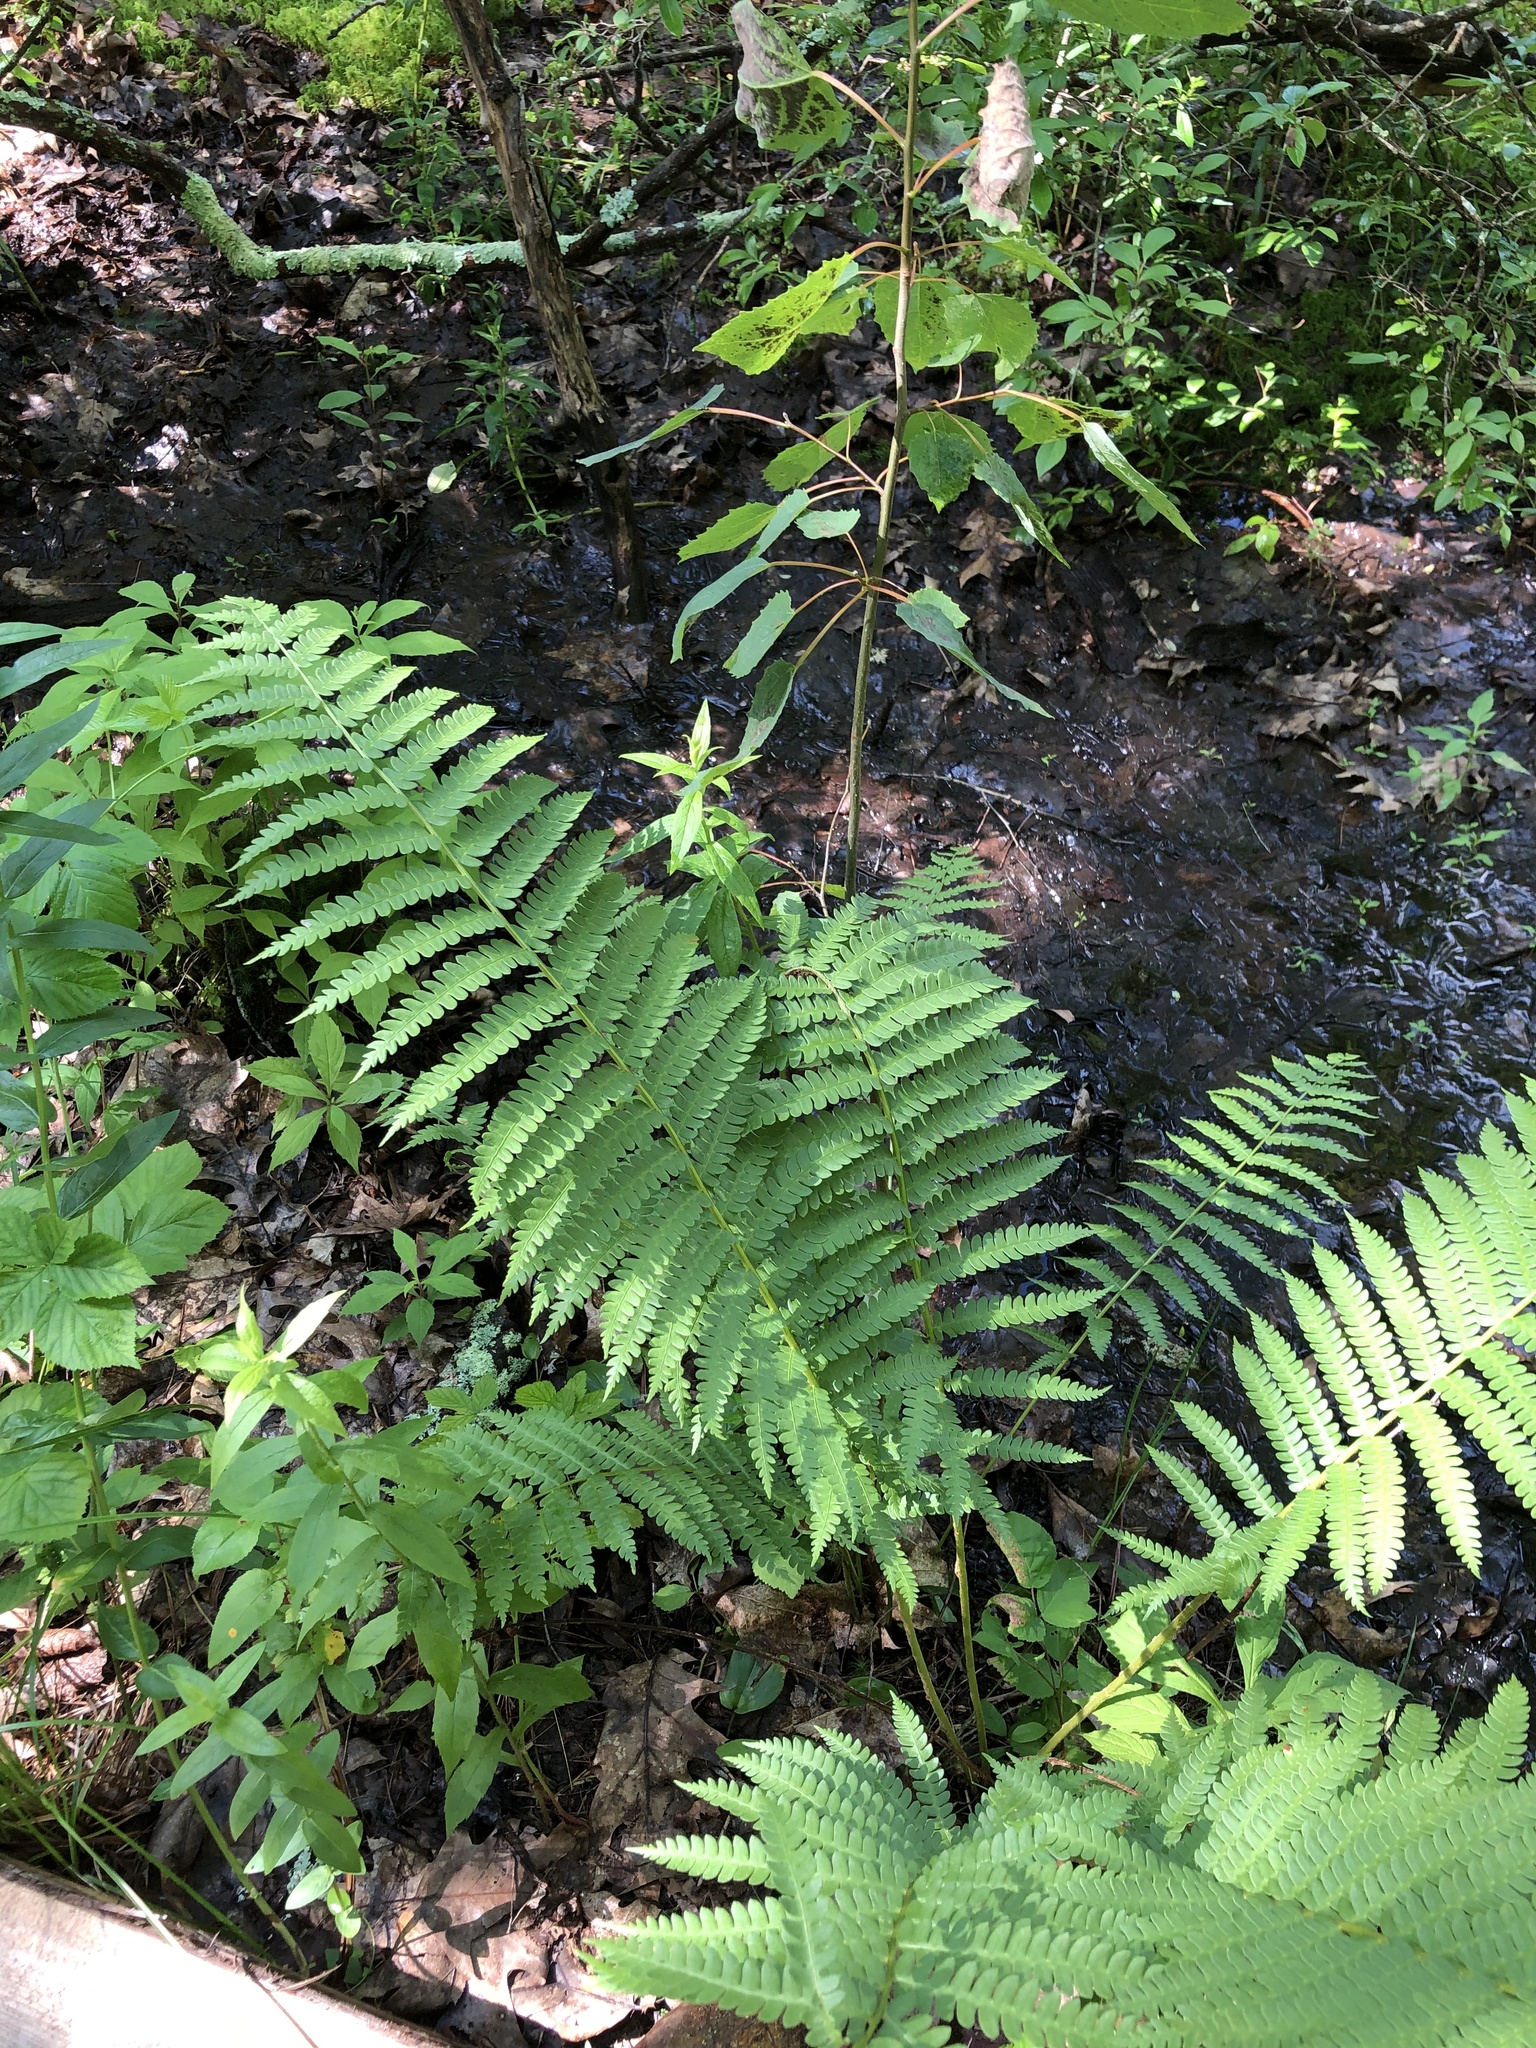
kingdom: Plantae
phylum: Tracheophyta
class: Polypodiopsida
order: Osmundales
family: Osmundaceae
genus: Osmundastrum
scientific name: Osmundastrum cinnamomeum
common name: Cinnamon fern
